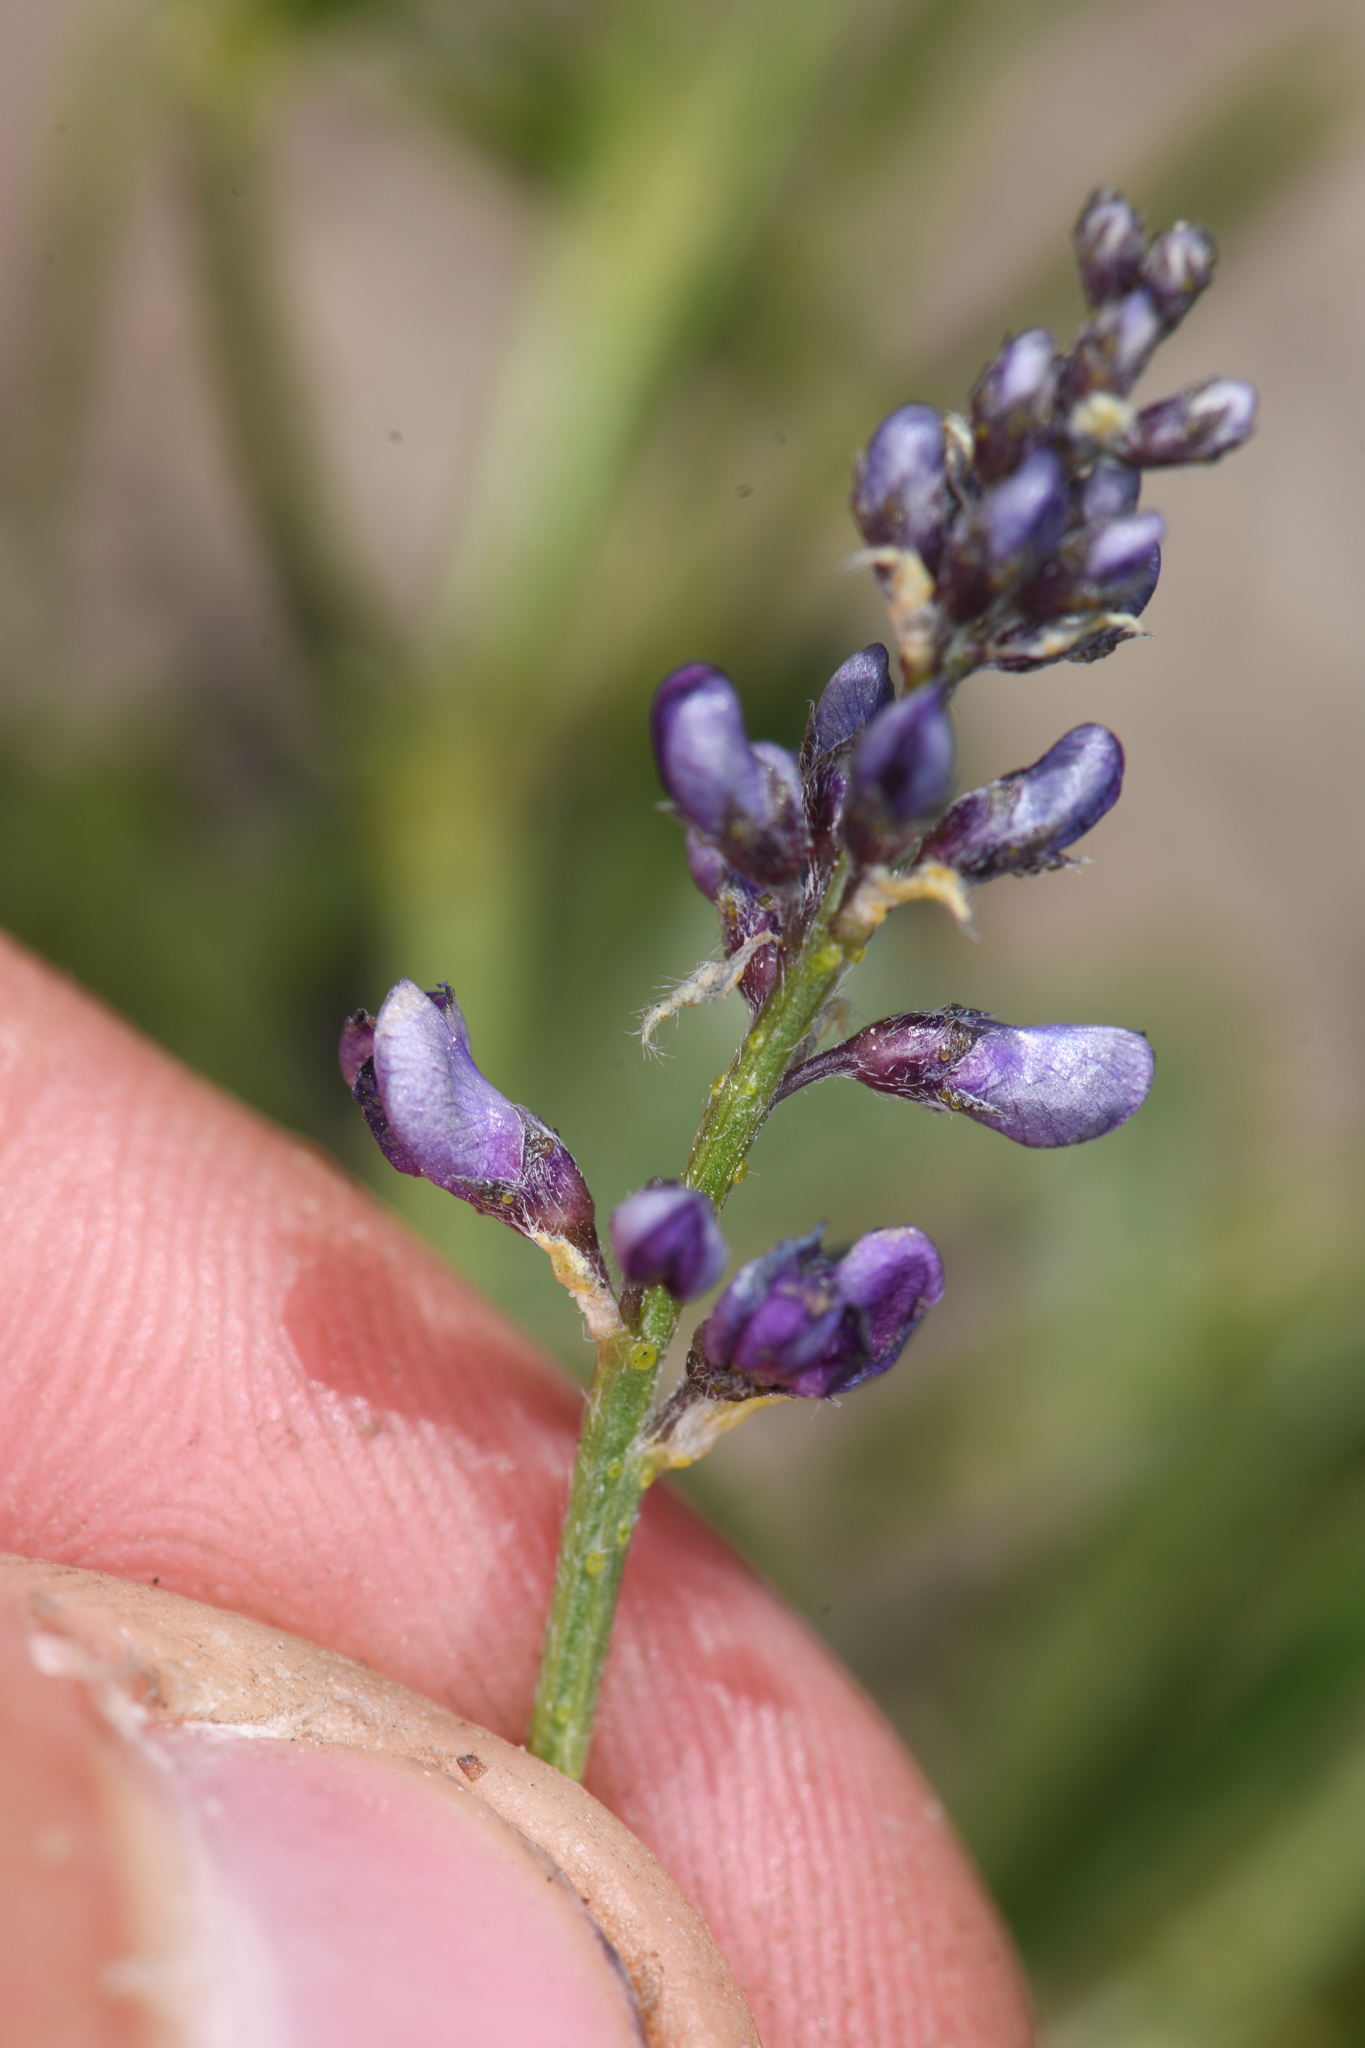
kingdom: Plantae
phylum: Tracheophyta
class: Magnoliopsida
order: Fabales
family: Fabaceae
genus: Ladeania
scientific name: Ladeania lanceolata
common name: Dune scurf-pea
